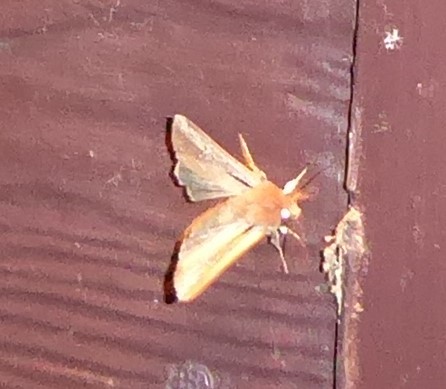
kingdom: Animalia
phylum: Arthropoda
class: Insecta
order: Lepidoptera
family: Noctuidae
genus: Ichneutica
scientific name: Ichneutica atristriga
